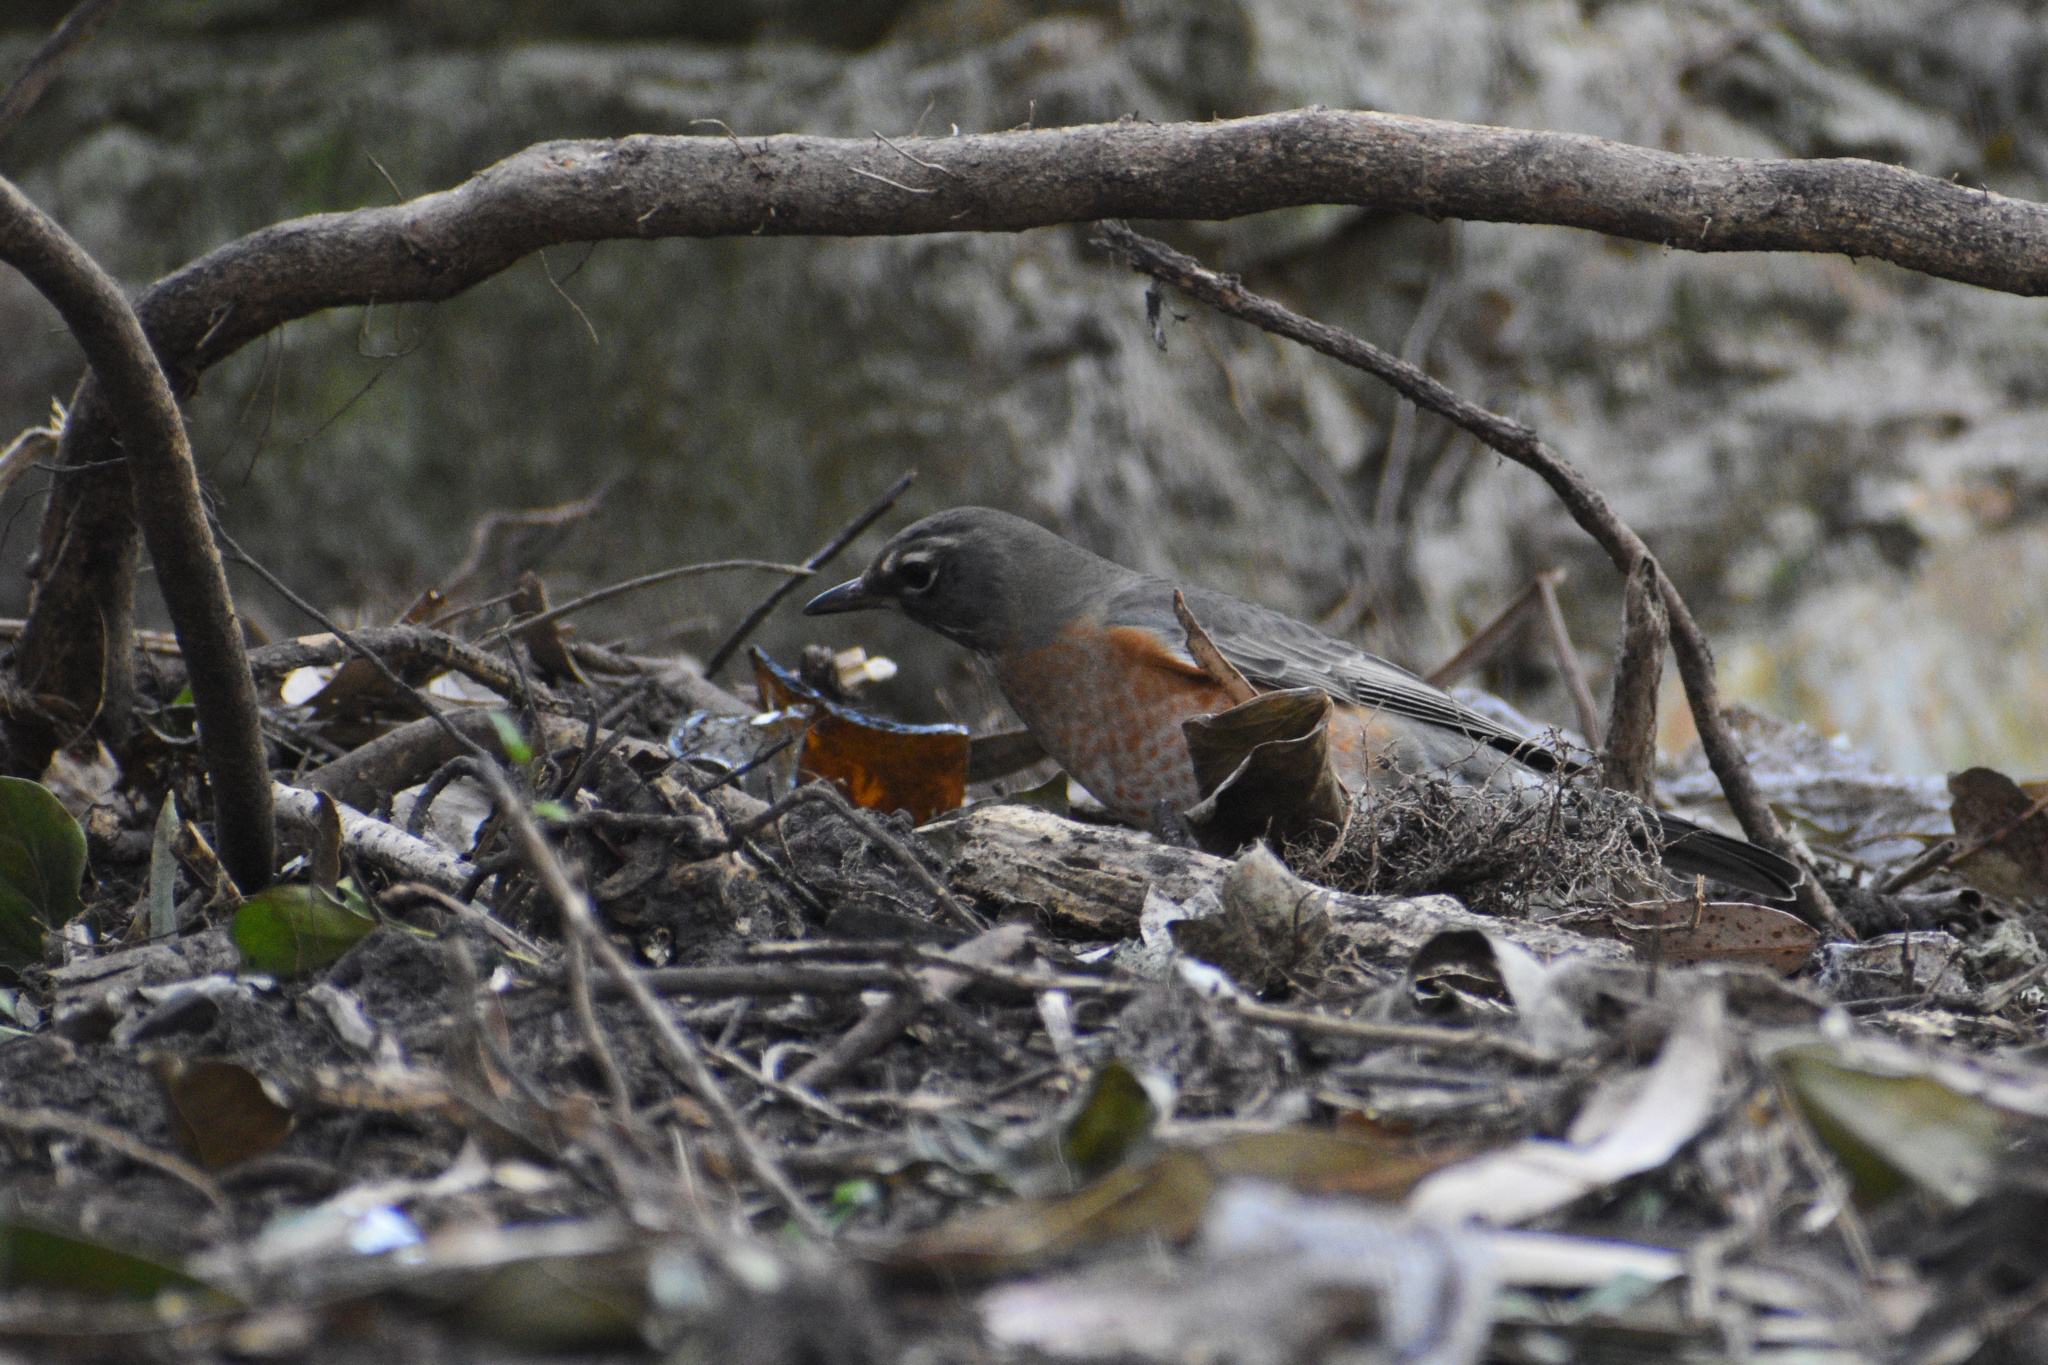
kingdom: Animalia
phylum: Chordata
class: Aves
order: Passeriformes
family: Turdidae
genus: Turdus
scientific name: Turdus migratorius
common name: American robin
